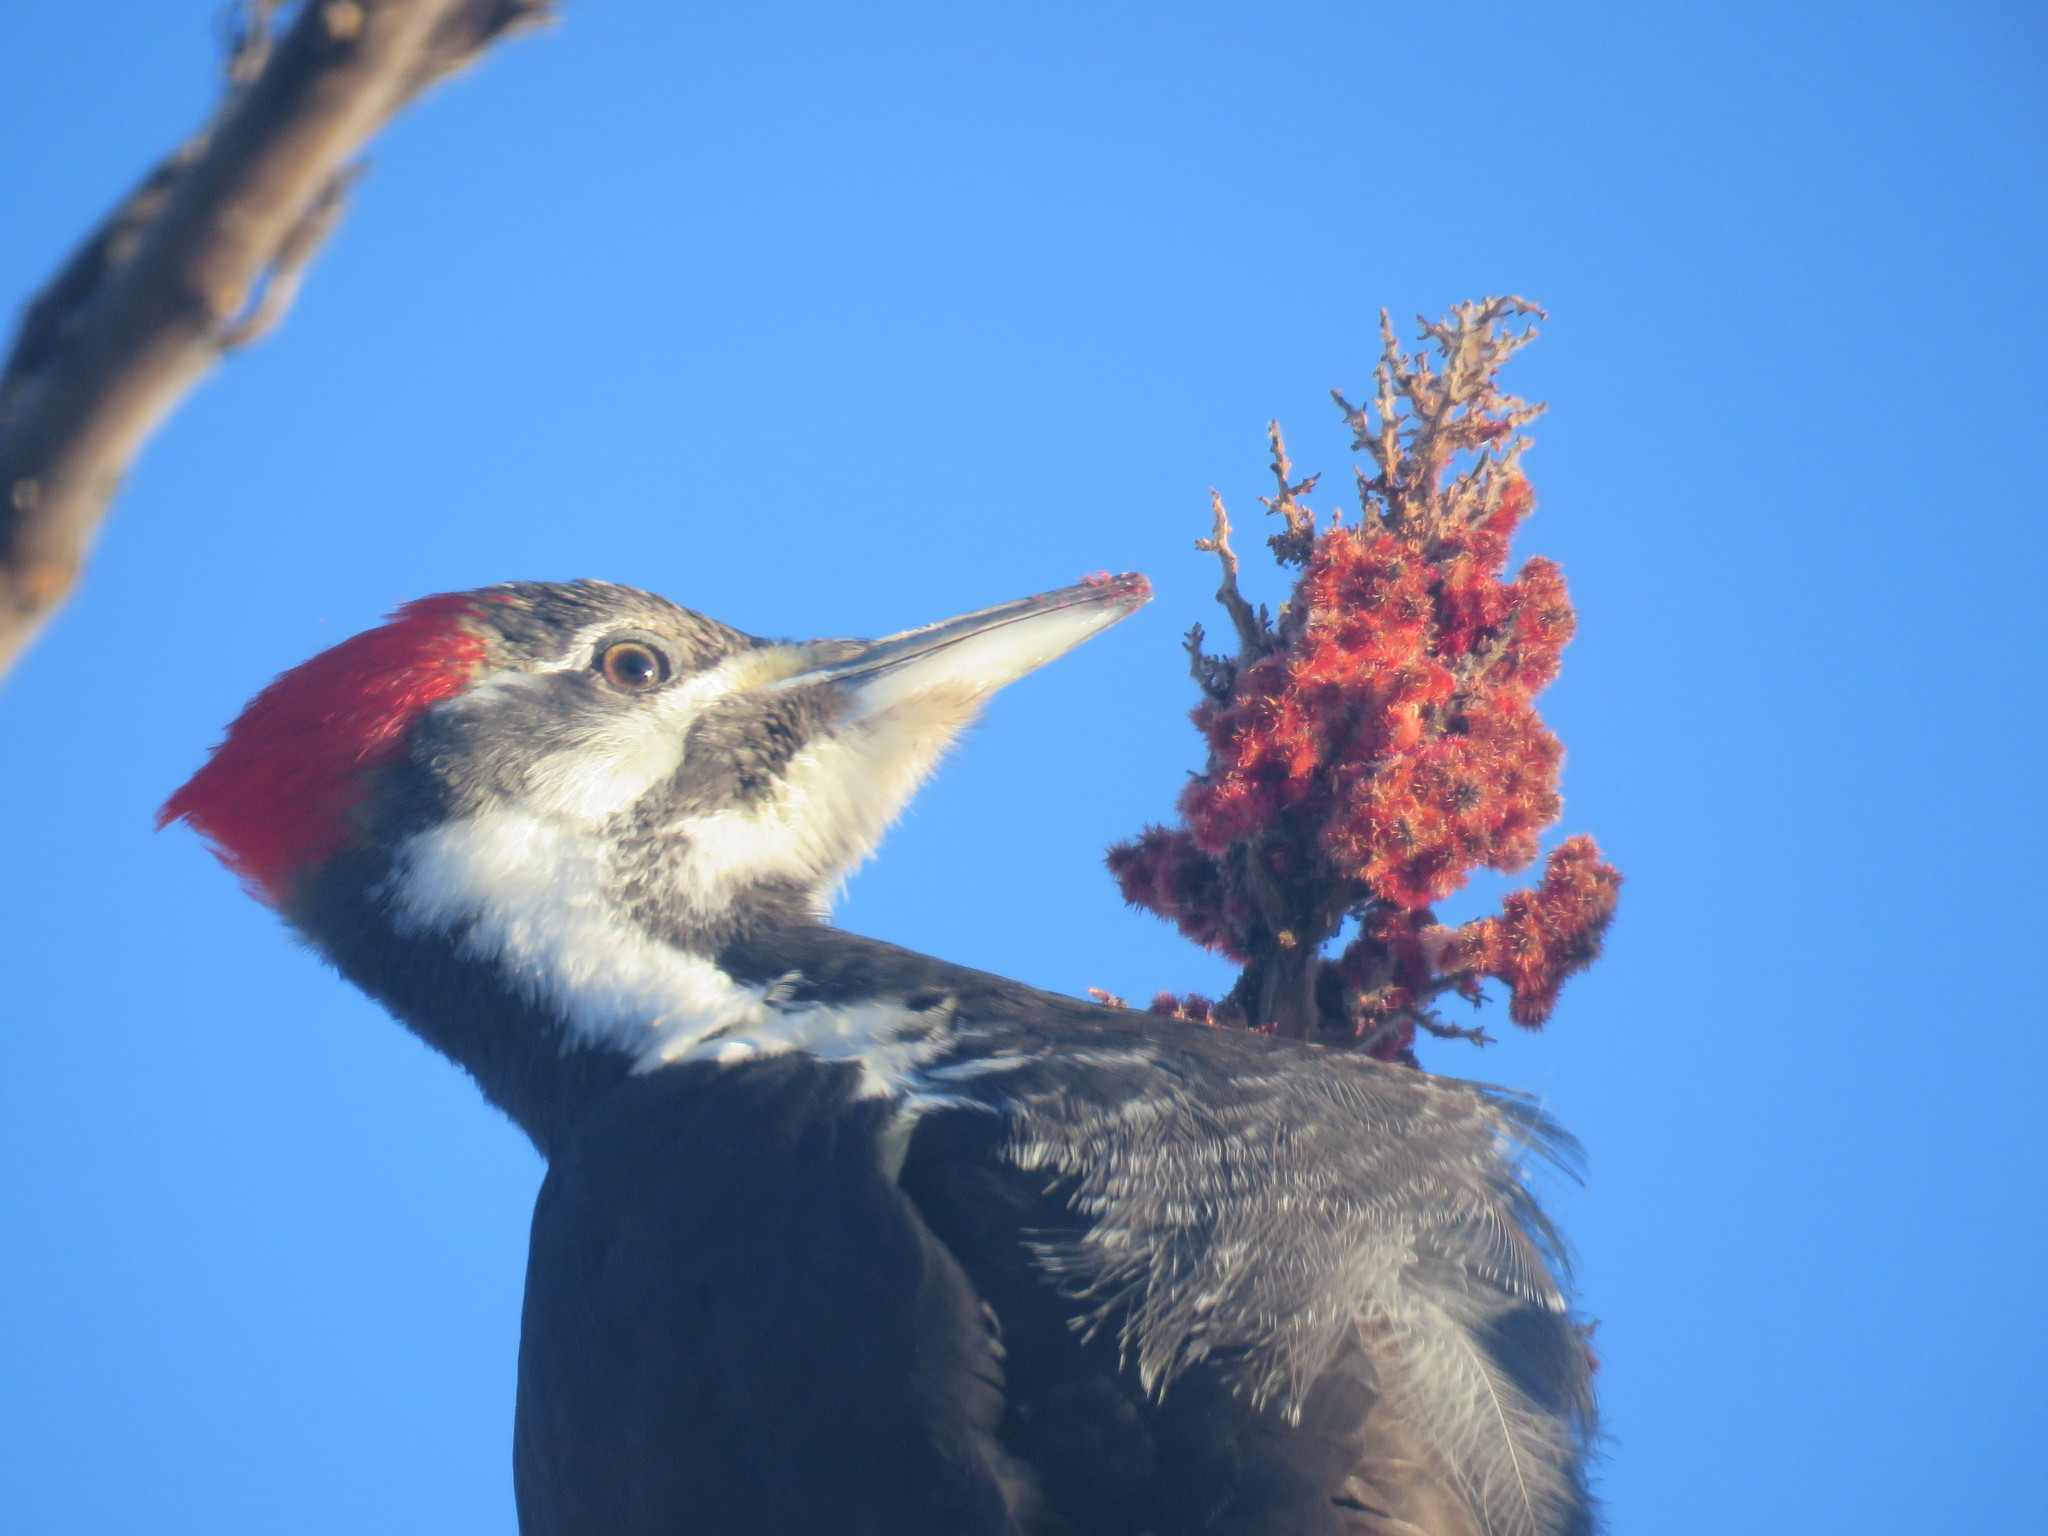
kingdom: Animalia
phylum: Chordata
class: Aves
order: Piciformes
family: Picidae
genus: Dryocopus
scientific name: Dryocopus pileatus
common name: Pileated woodpecker
